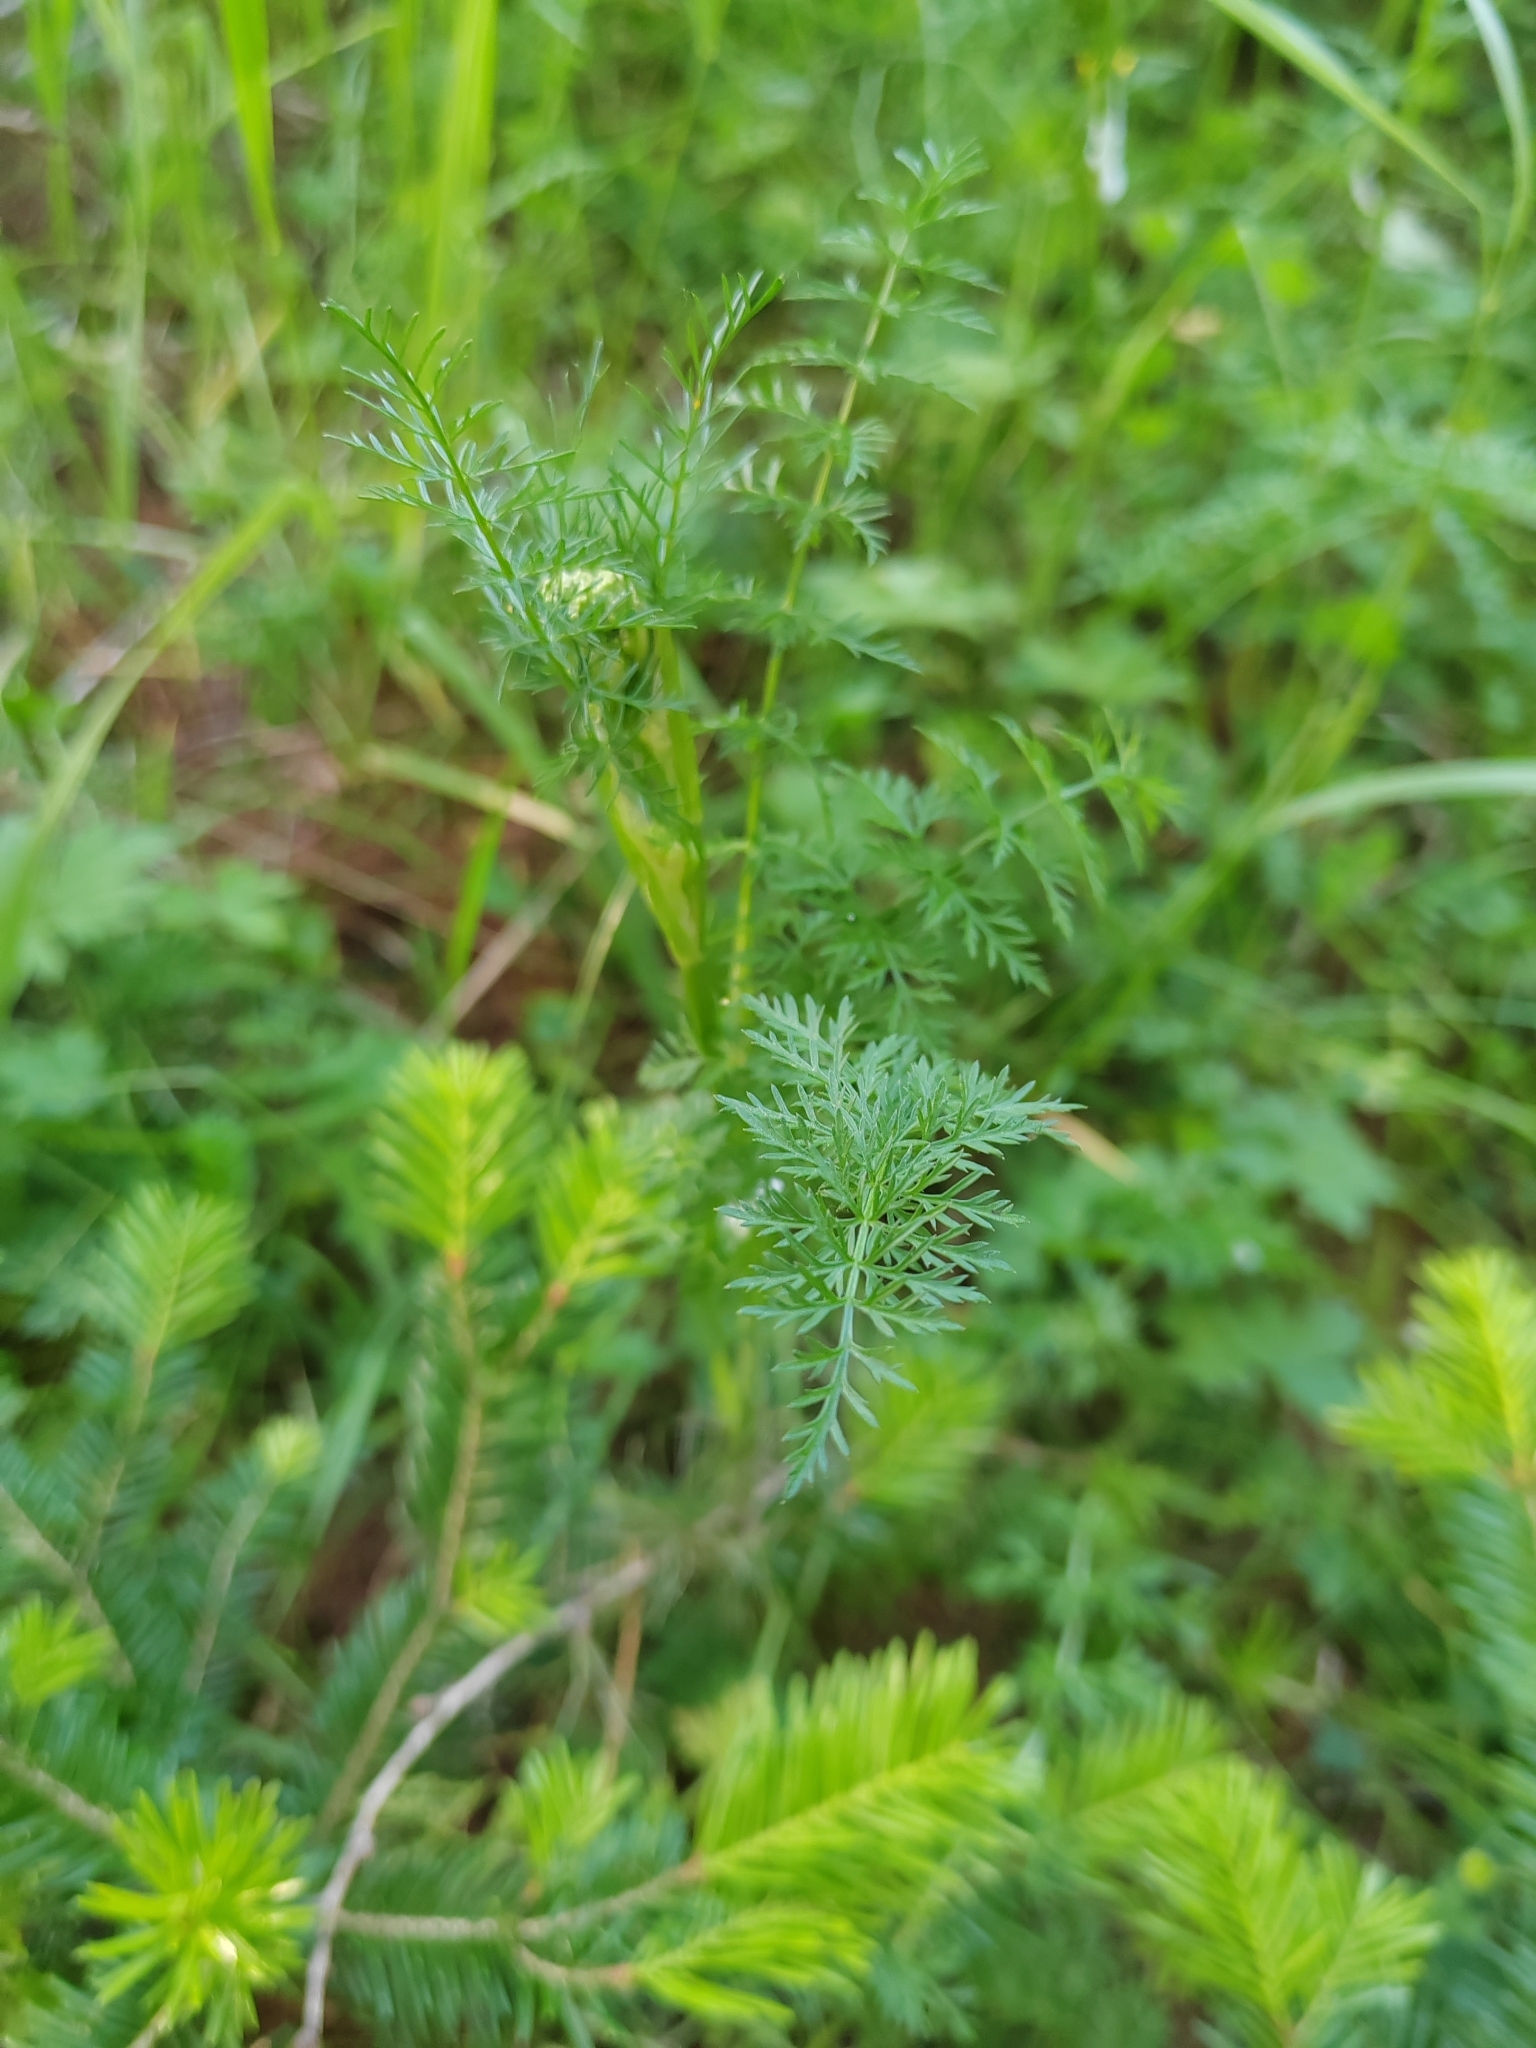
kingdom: Plantae
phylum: Tracheophyta
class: Magnoliopsida
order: Apiales
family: Apiaceae
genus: Carum
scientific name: Carum carvi
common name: Caraway
